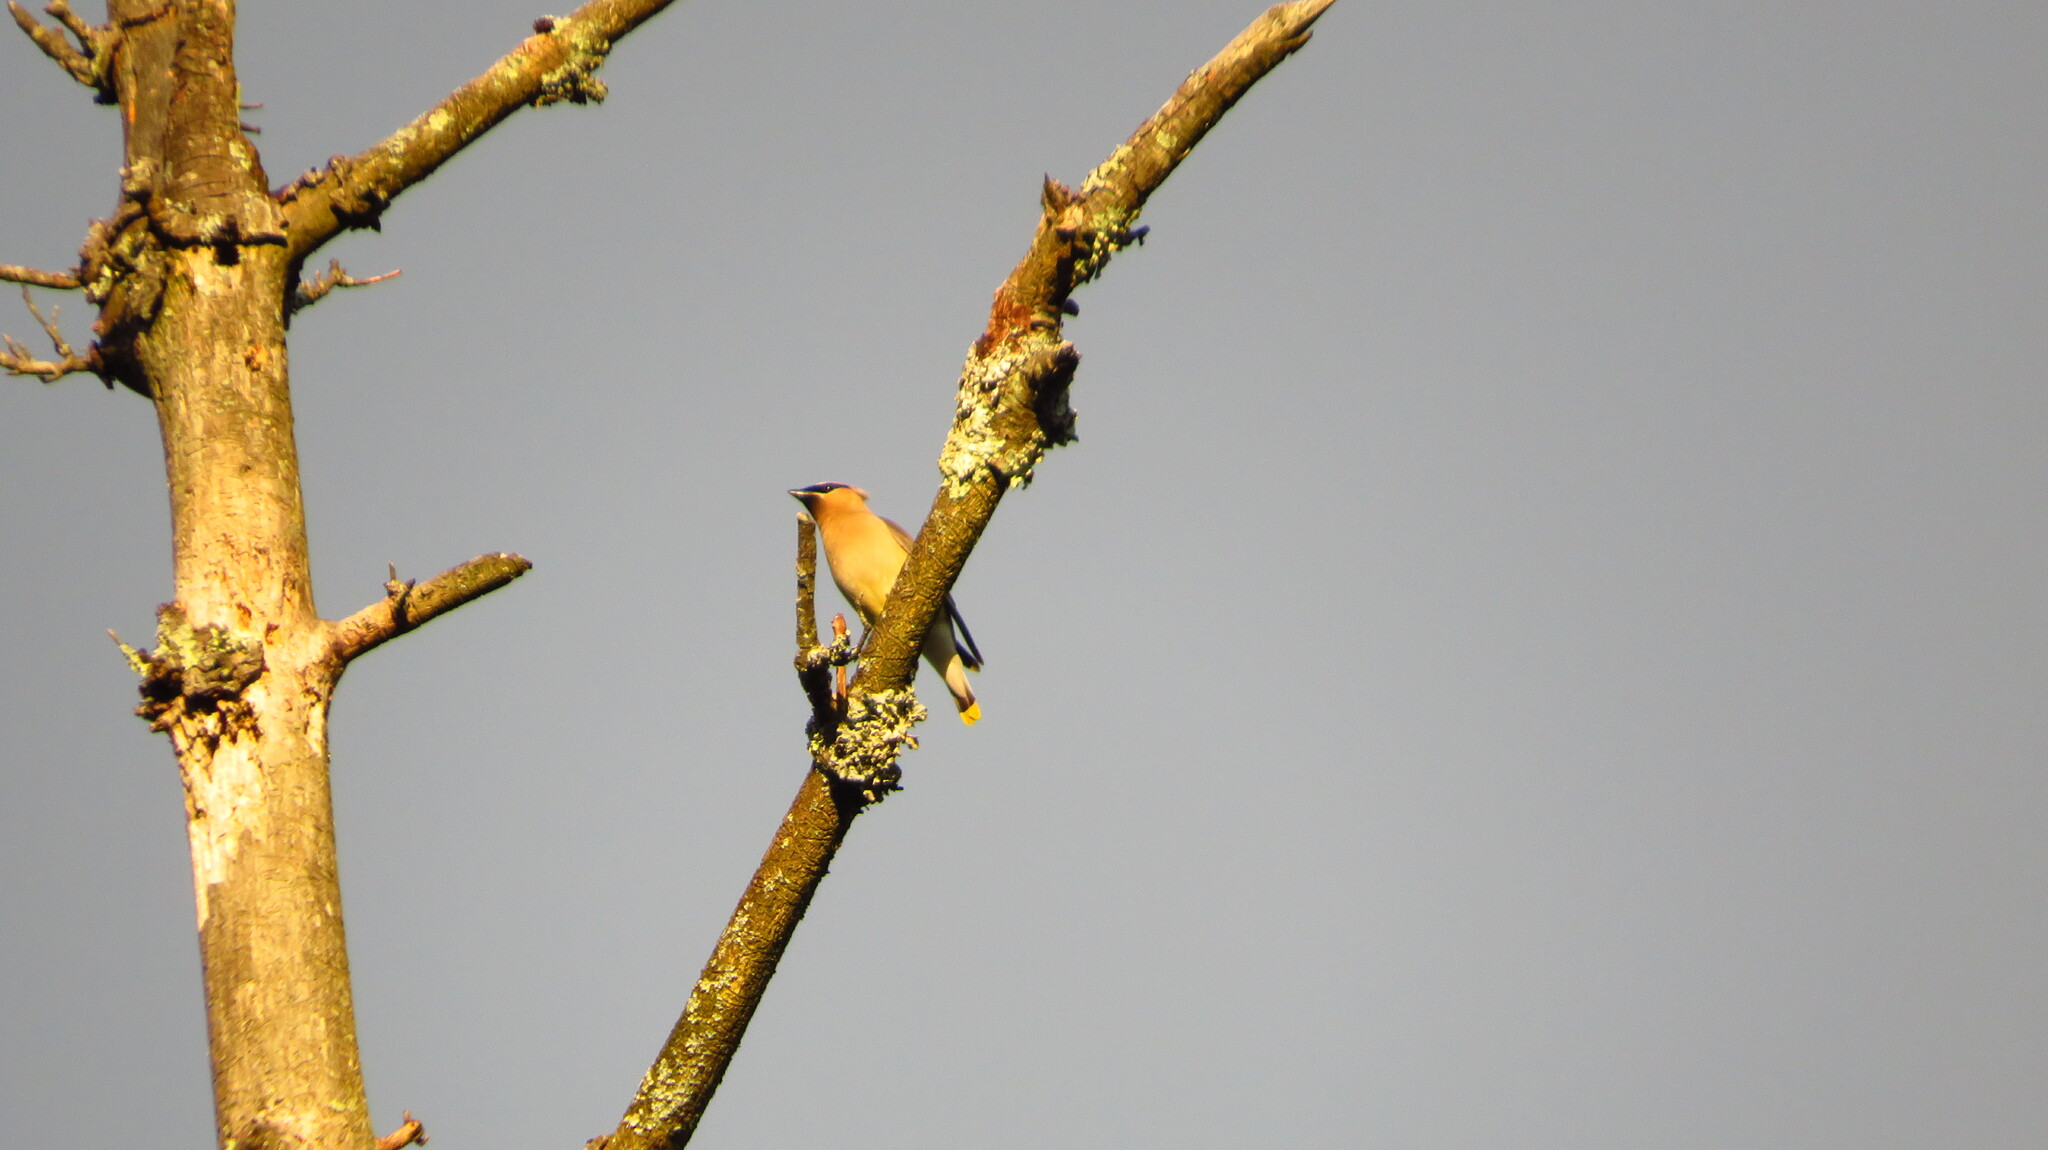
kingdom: Animalia
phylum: Chordata
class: Aves
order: Passeriformes
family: Bombycillidae
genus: Bombycilla
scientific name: Bombycilla cedrorum
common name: Cedar waxwing
